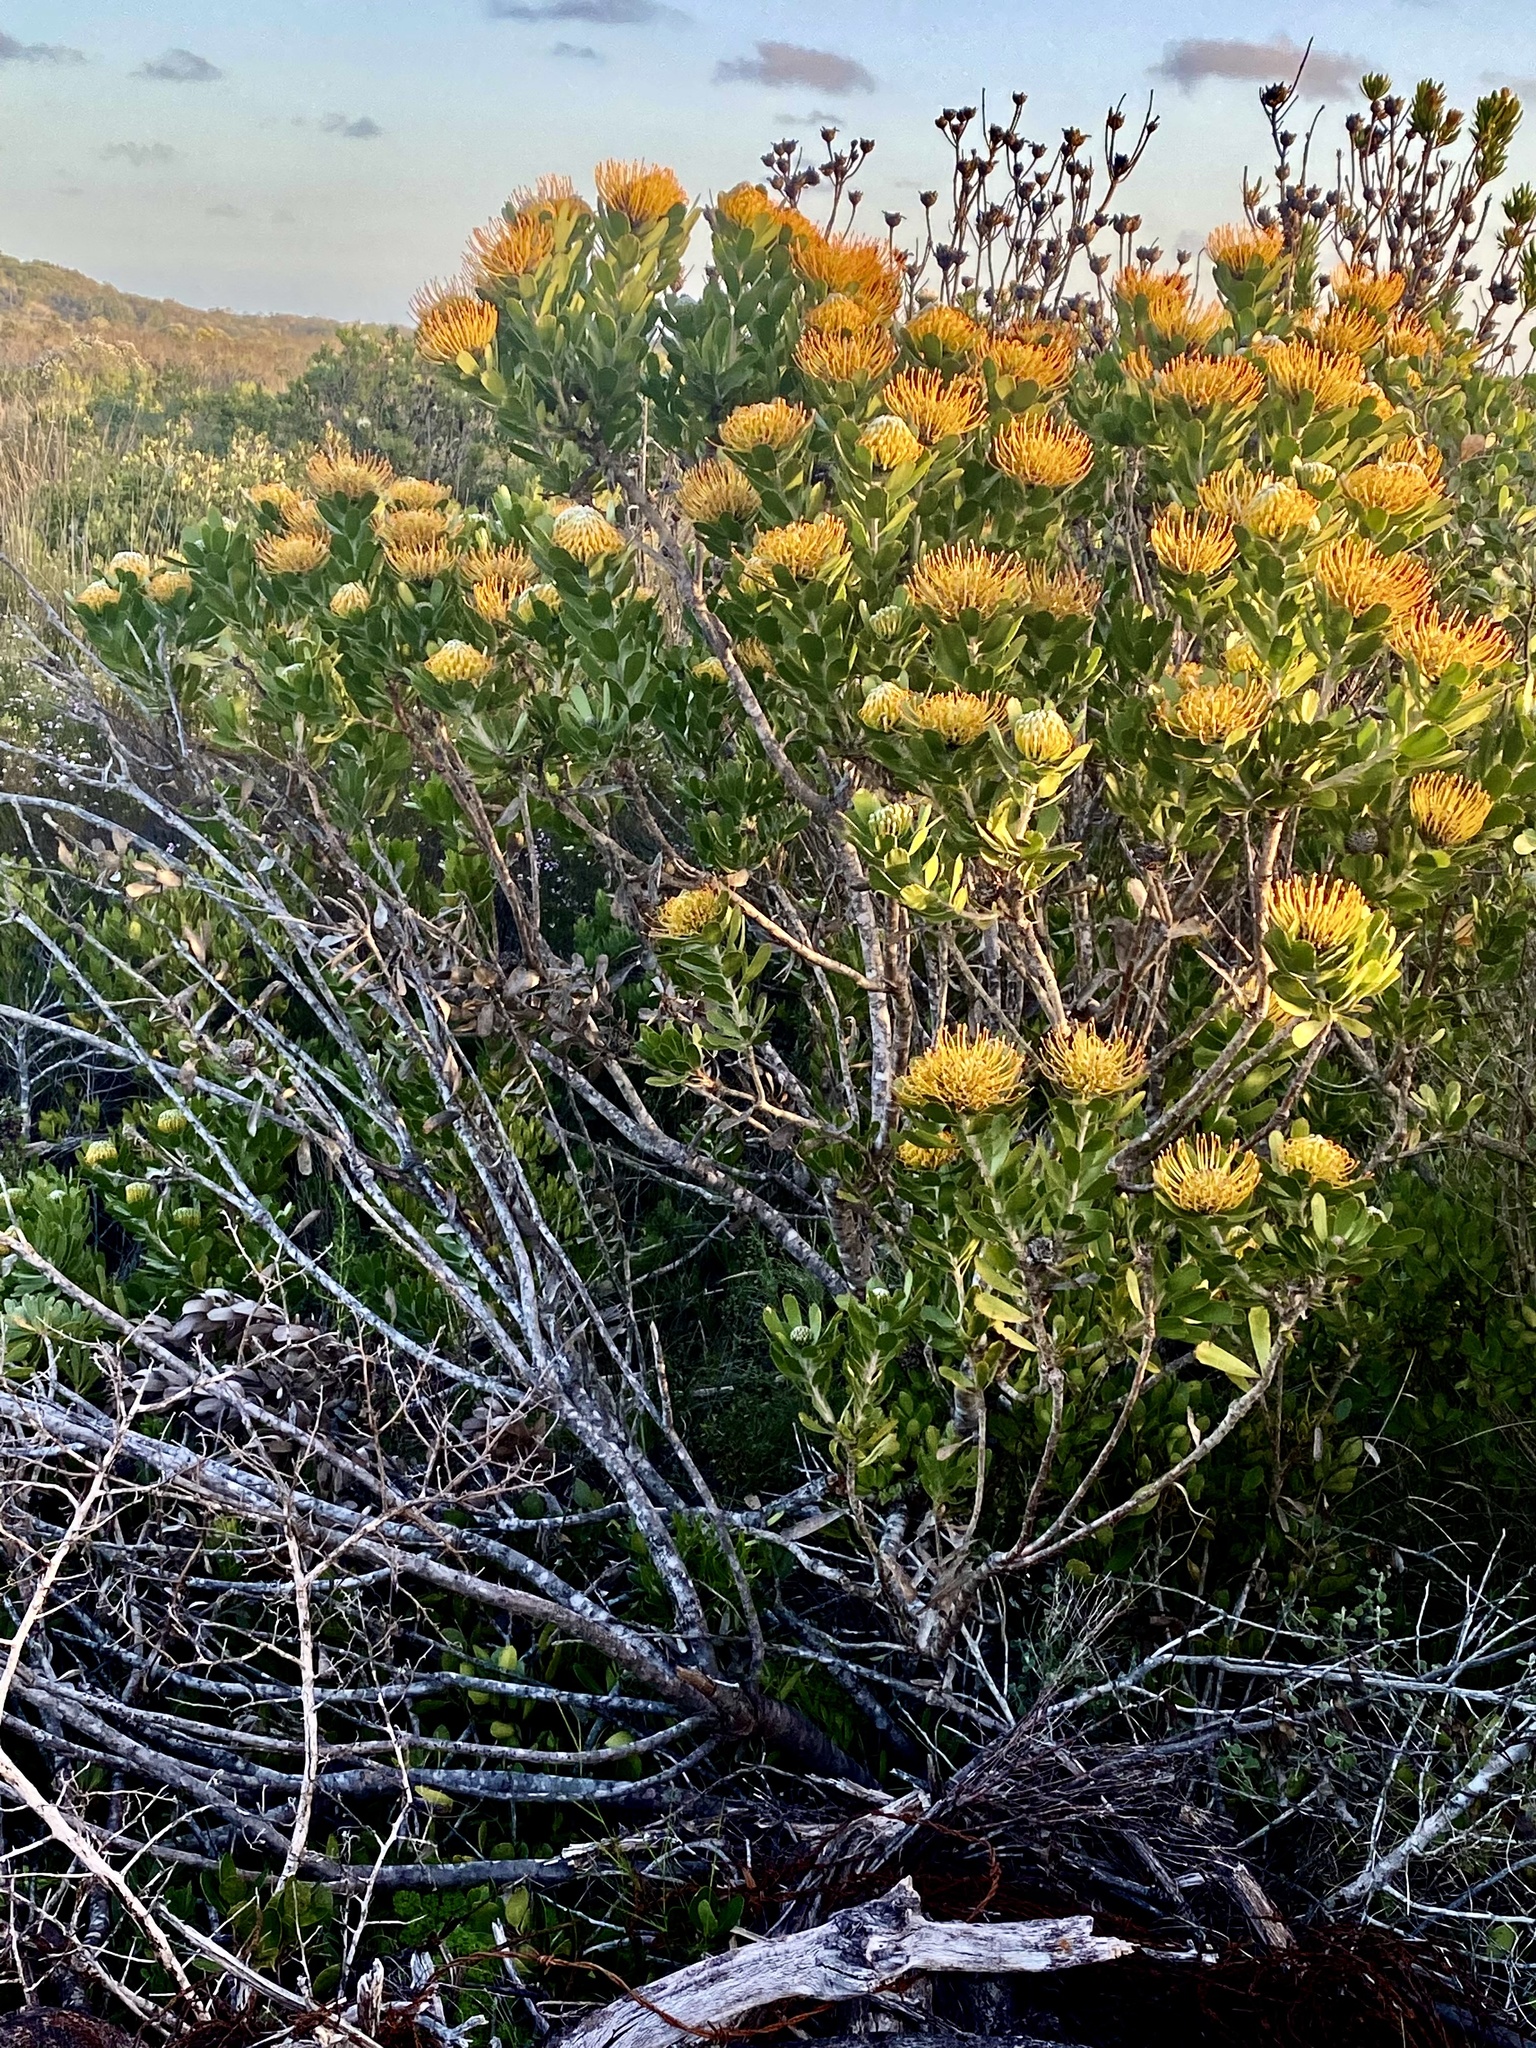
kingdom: Plantae
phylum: Tracheophyta
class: Magnoliopsida
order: Proteales
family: Proteaceae
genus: Leucospermum
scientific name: Leucospermum praecox
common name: Mossel bay pincushion
